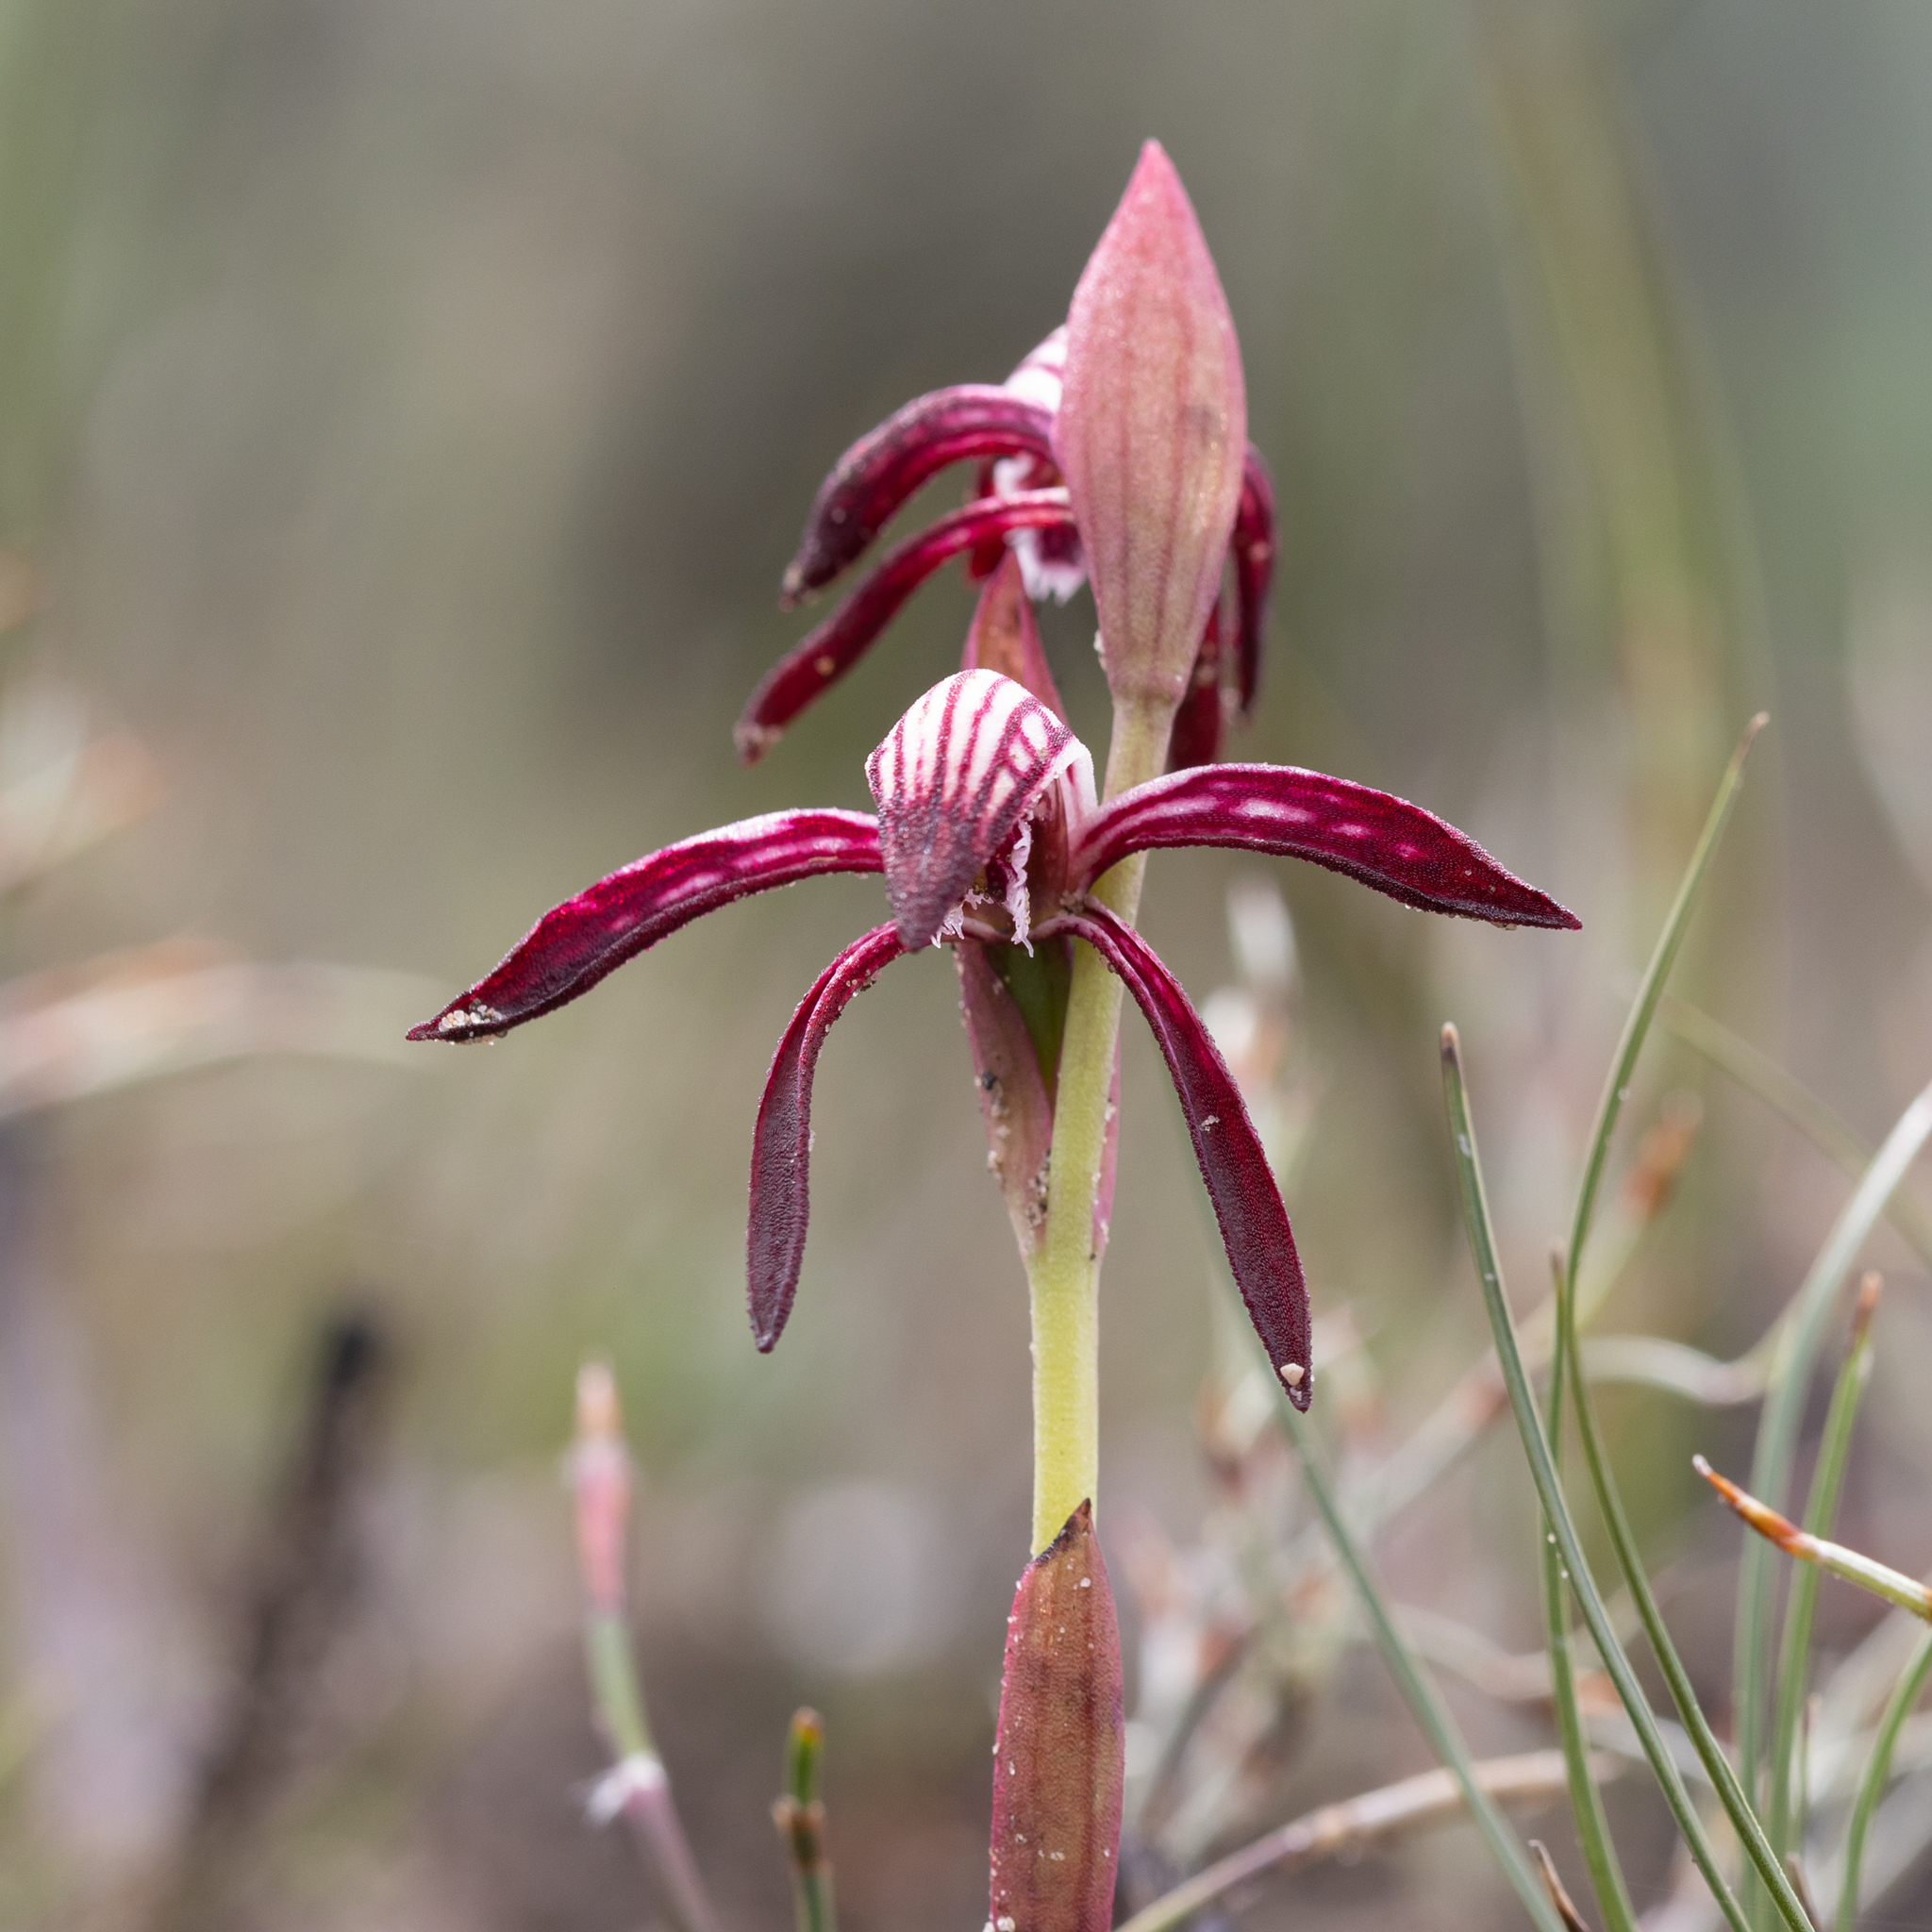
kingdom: Plantae
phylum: Tracheophyta
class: Liliopsida
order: Asparagales
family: Orchidaceae
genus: Pyrorchis
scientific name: Pyrorchis nigricans
